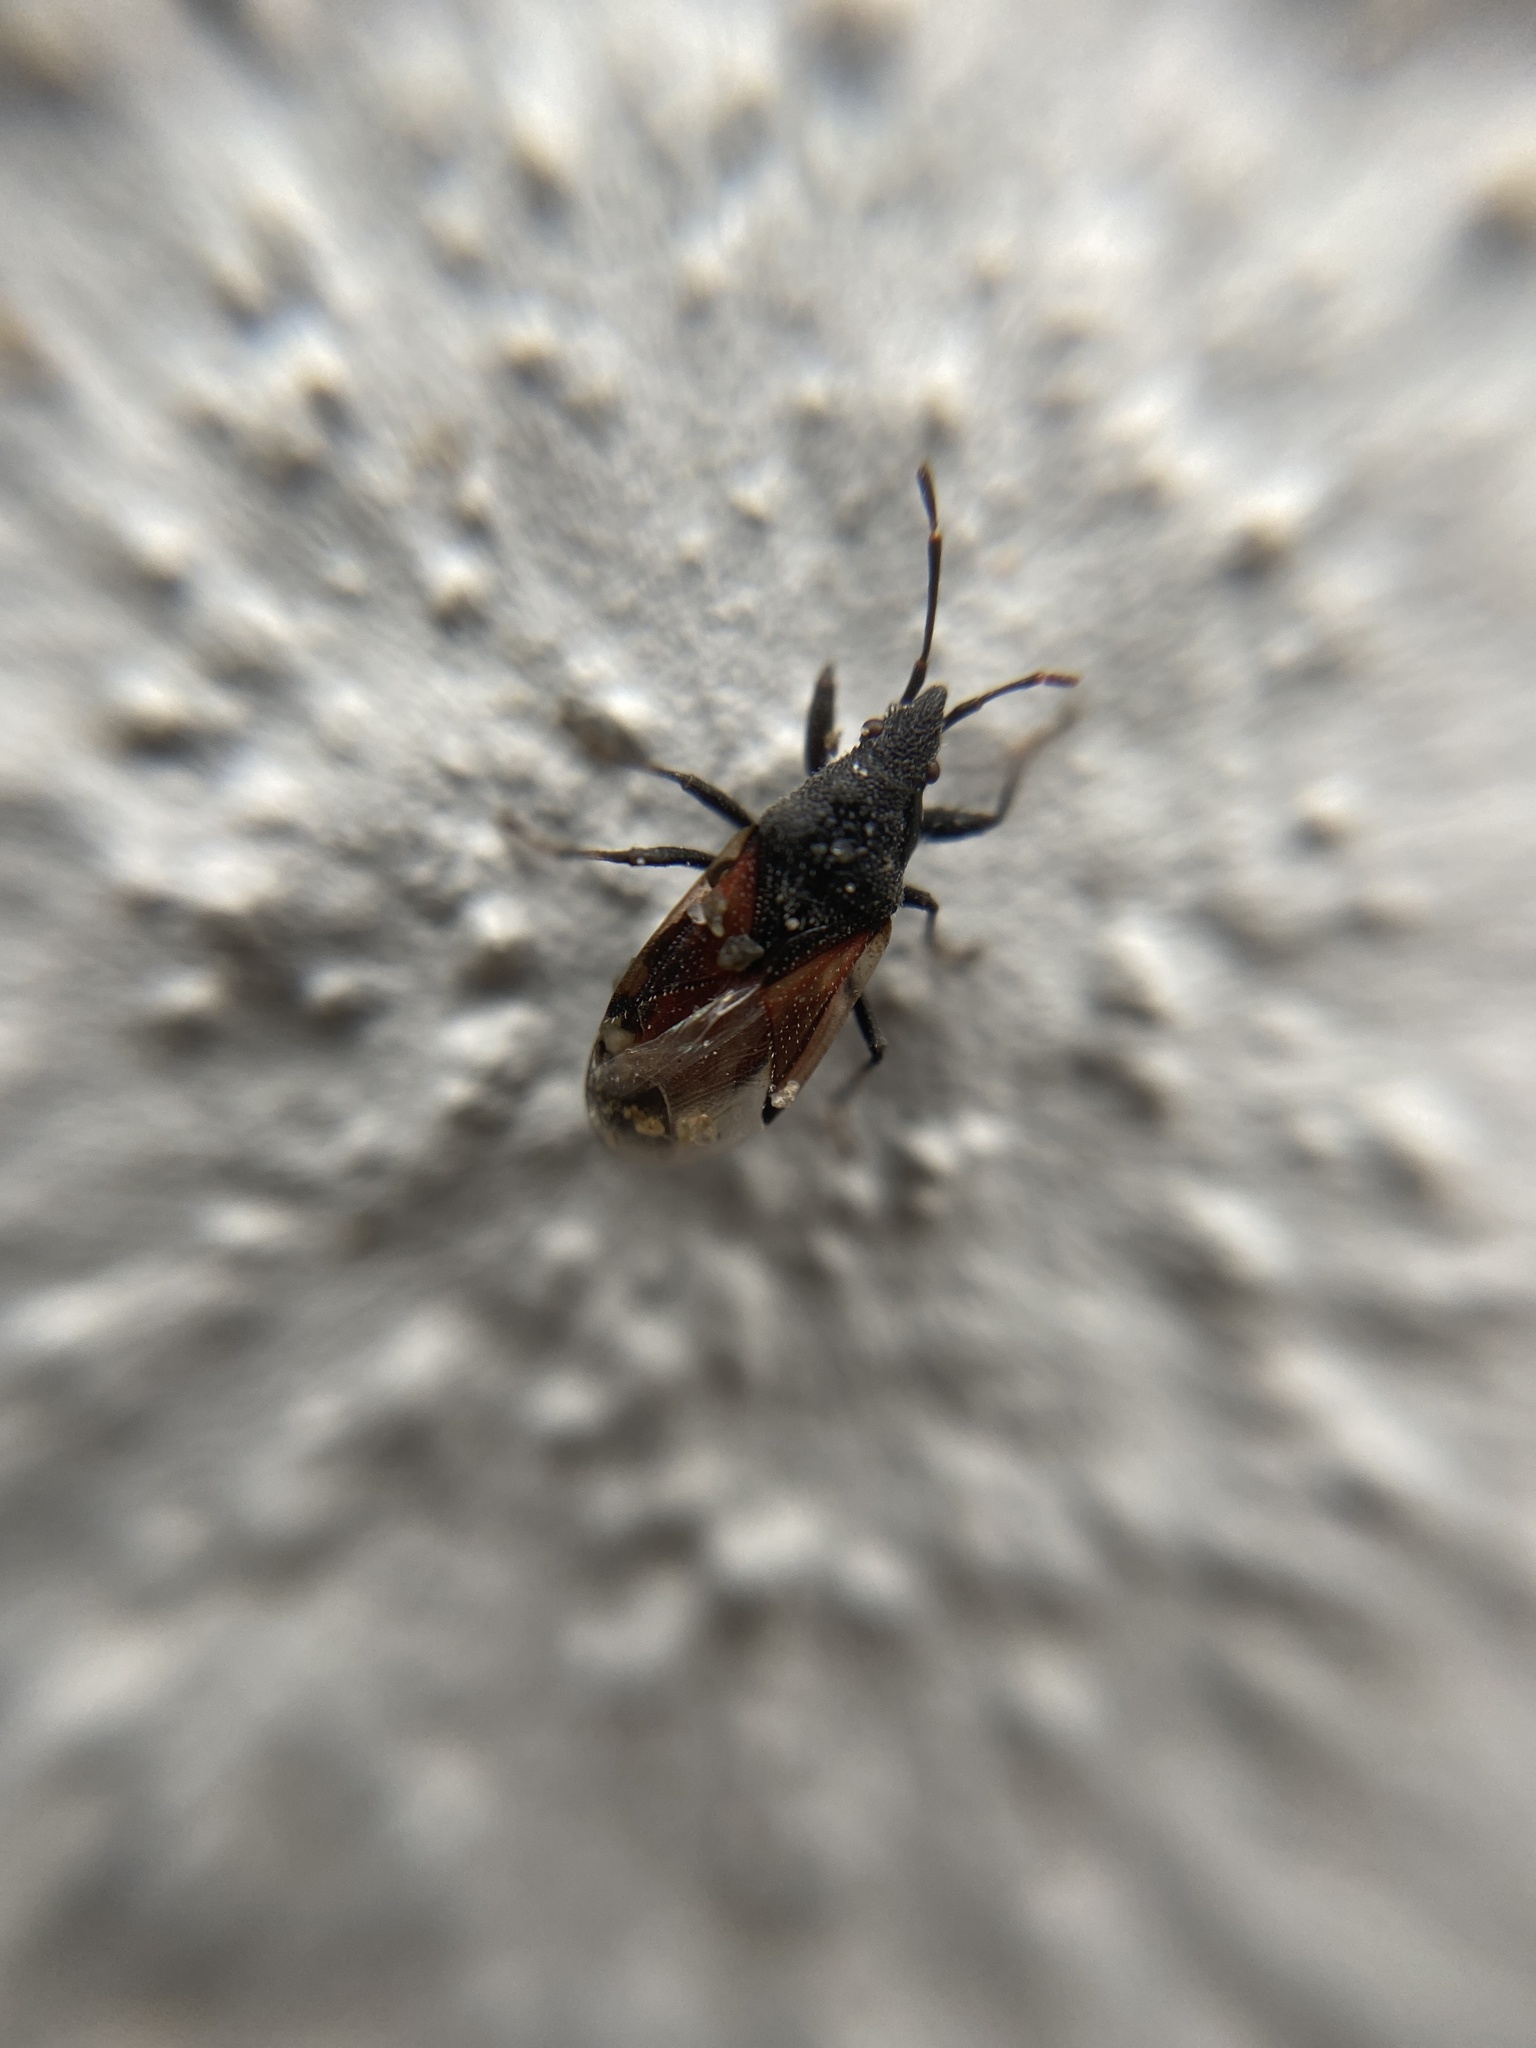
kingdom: Animalia
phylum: Arthropoda
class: Insecta
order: Hemiptera
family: Oxycarenidae
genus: Oxycarenus
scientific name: Oxycarenus lavaterae
